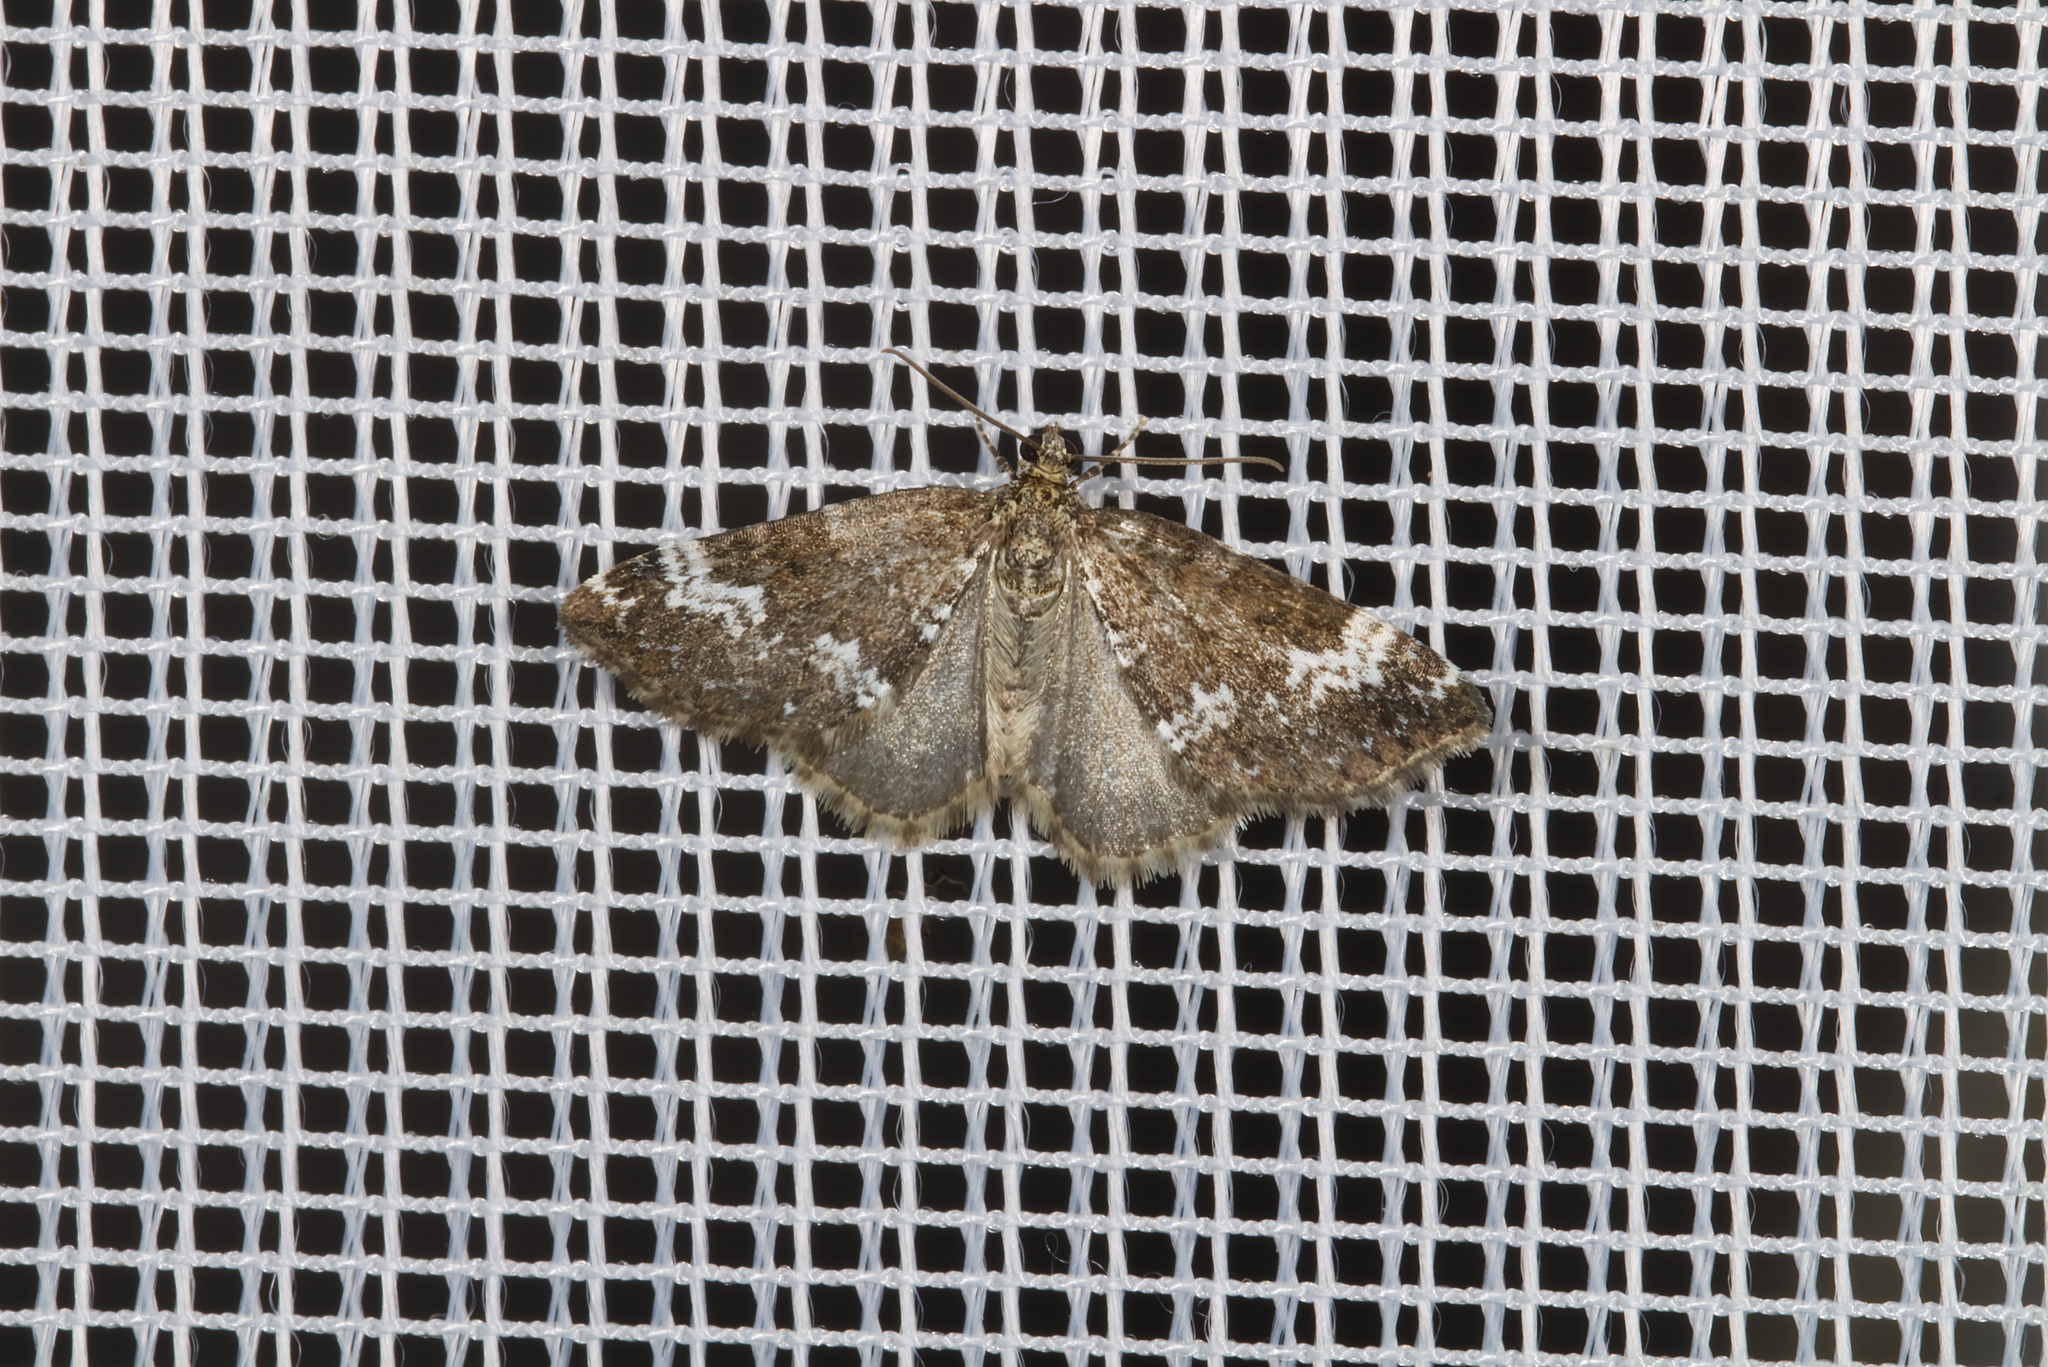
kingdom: Animalia
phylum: Arthropoda
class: Insecta
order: Lepidoptera
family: Geometridae
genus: Perizoma
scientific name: Perizoma alchemillata
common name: Small rivulet
